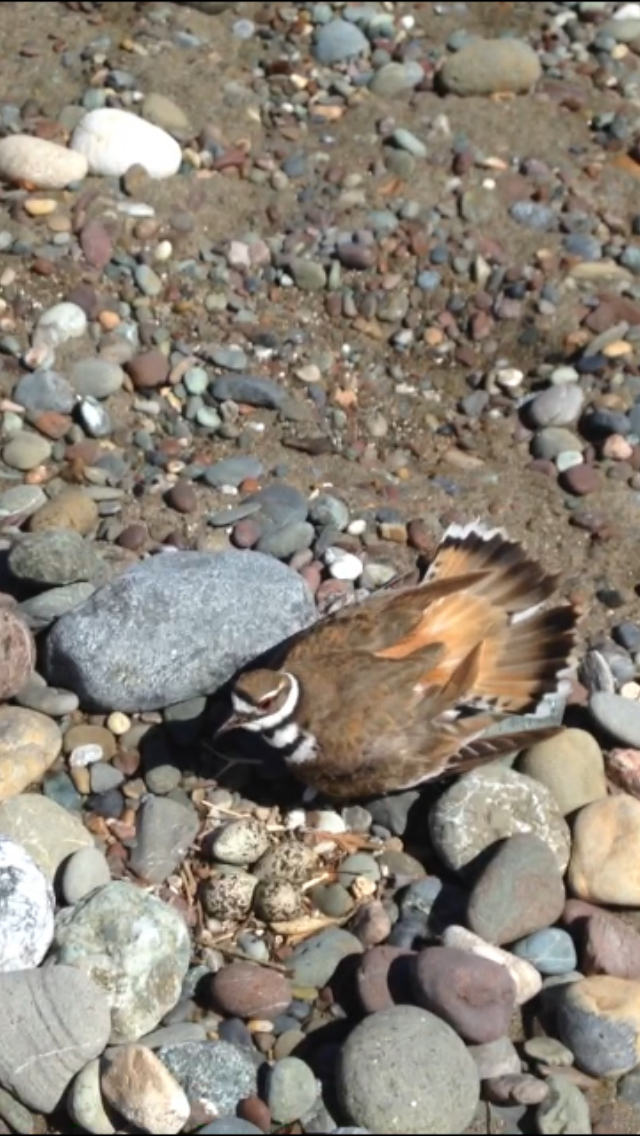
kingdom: Animalia
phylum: Chordata
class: Aves
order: Charadriiformes
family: Charadriidae
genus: Charadrius
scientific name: Charadrius vociferus
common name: Killdeer
